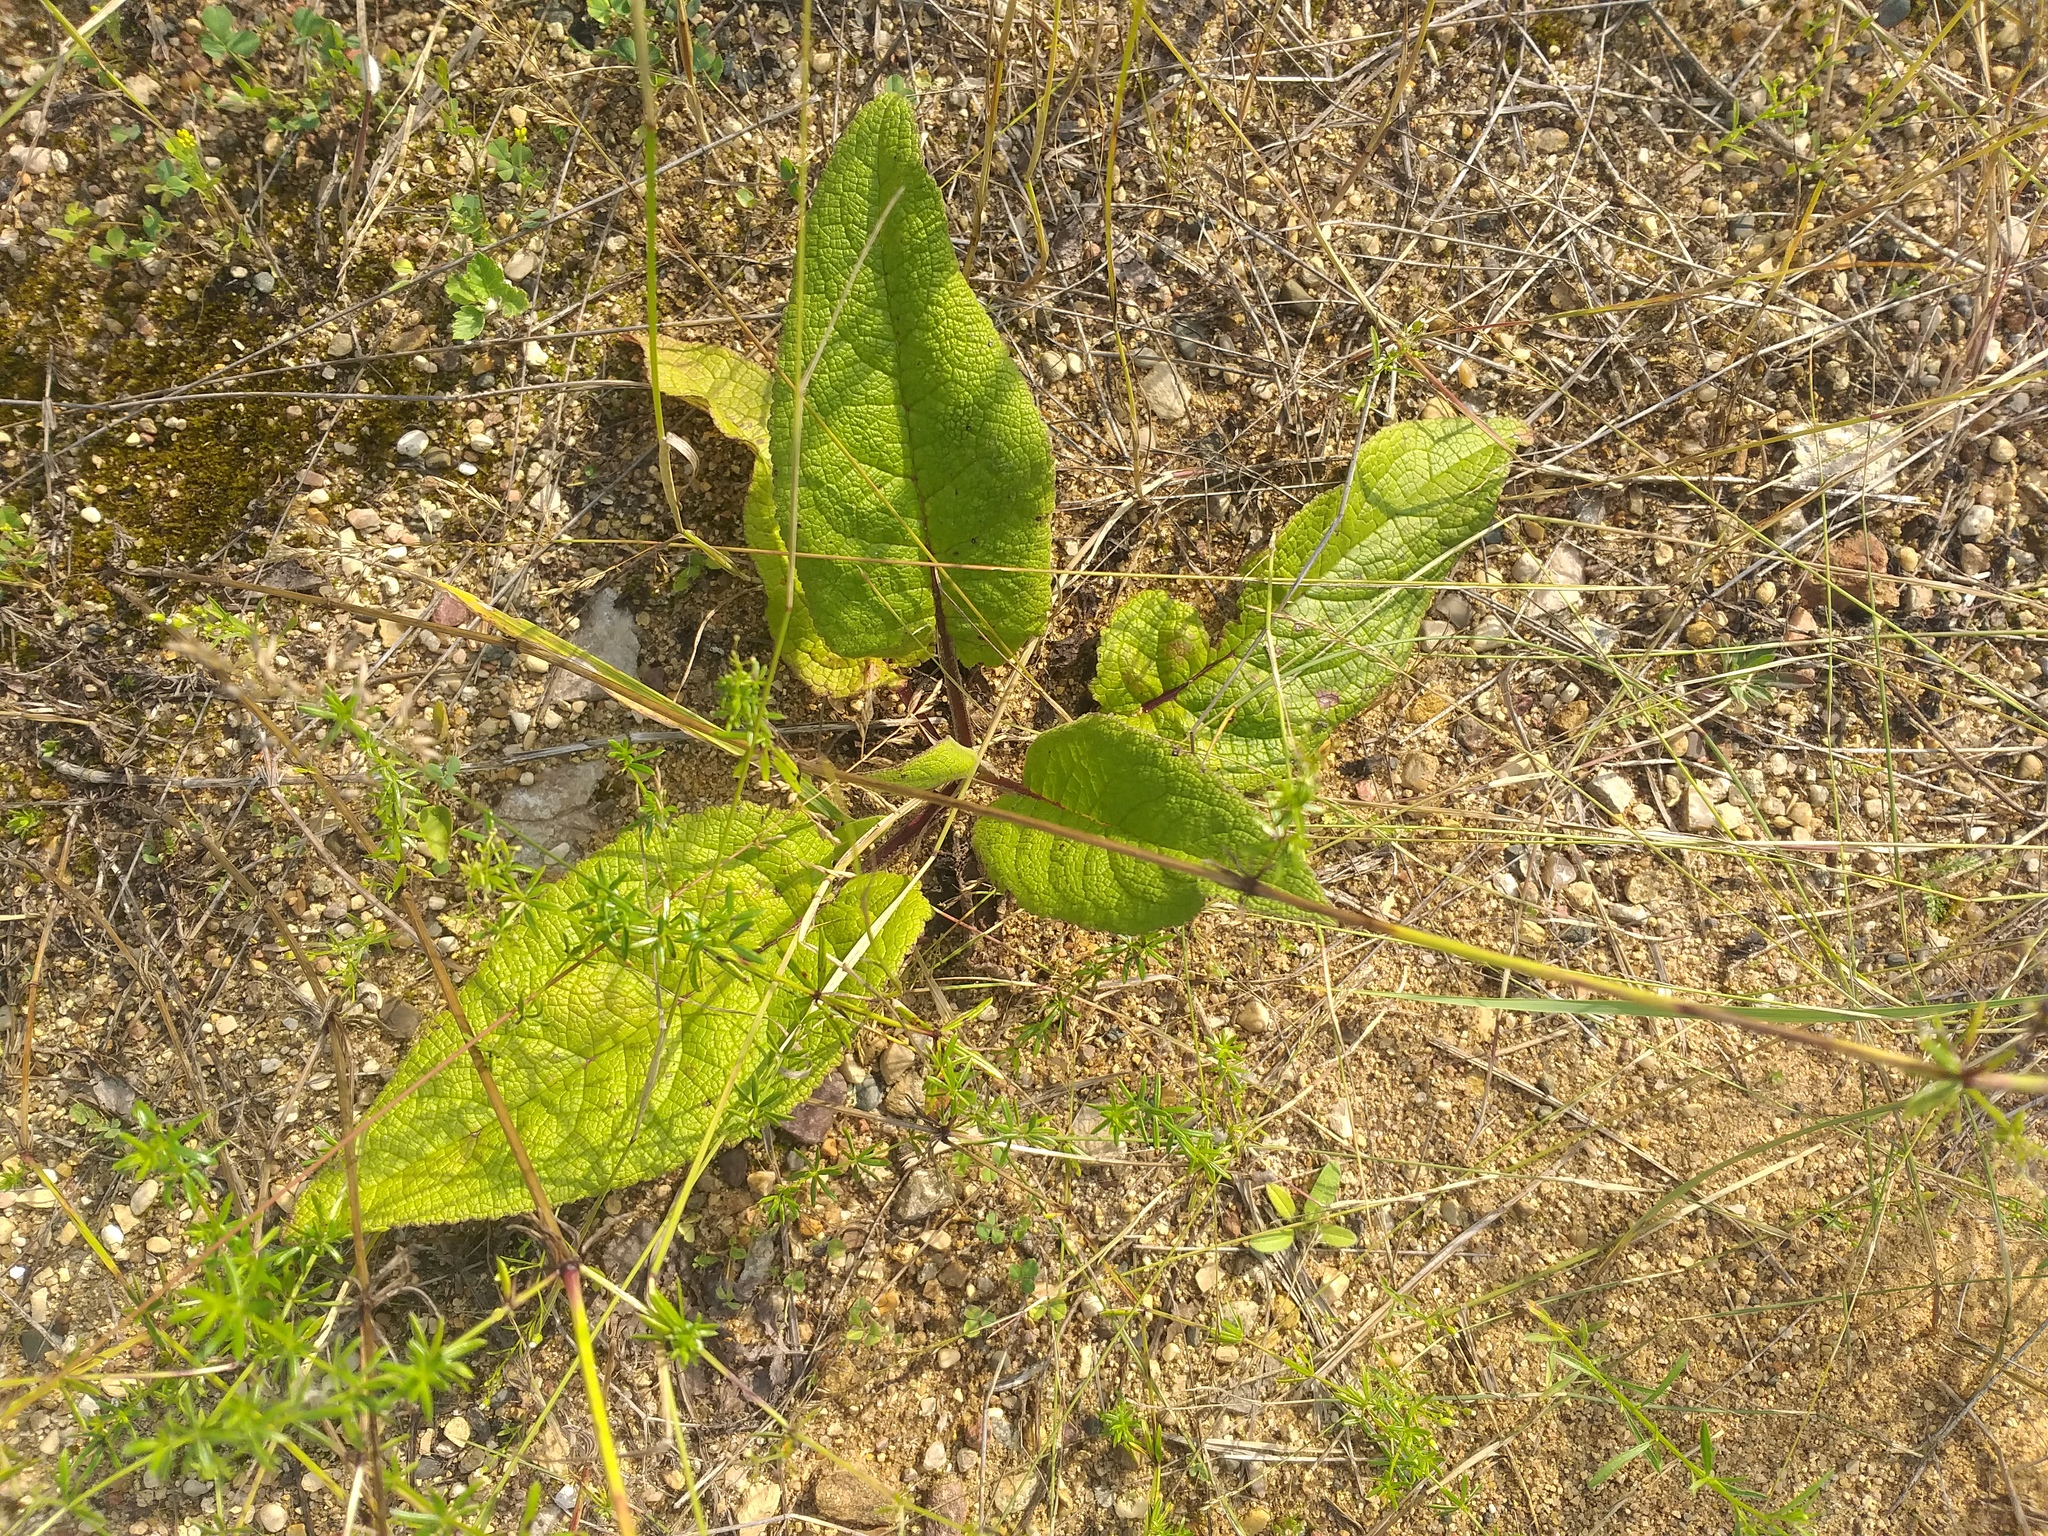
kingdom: Plantae
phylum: Tracheophyta
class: Magnoliopsida
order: Lamiales
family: Scrophulariaceae
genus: Verbascum
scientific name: Verbascum nigrum
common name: Dark mullein
